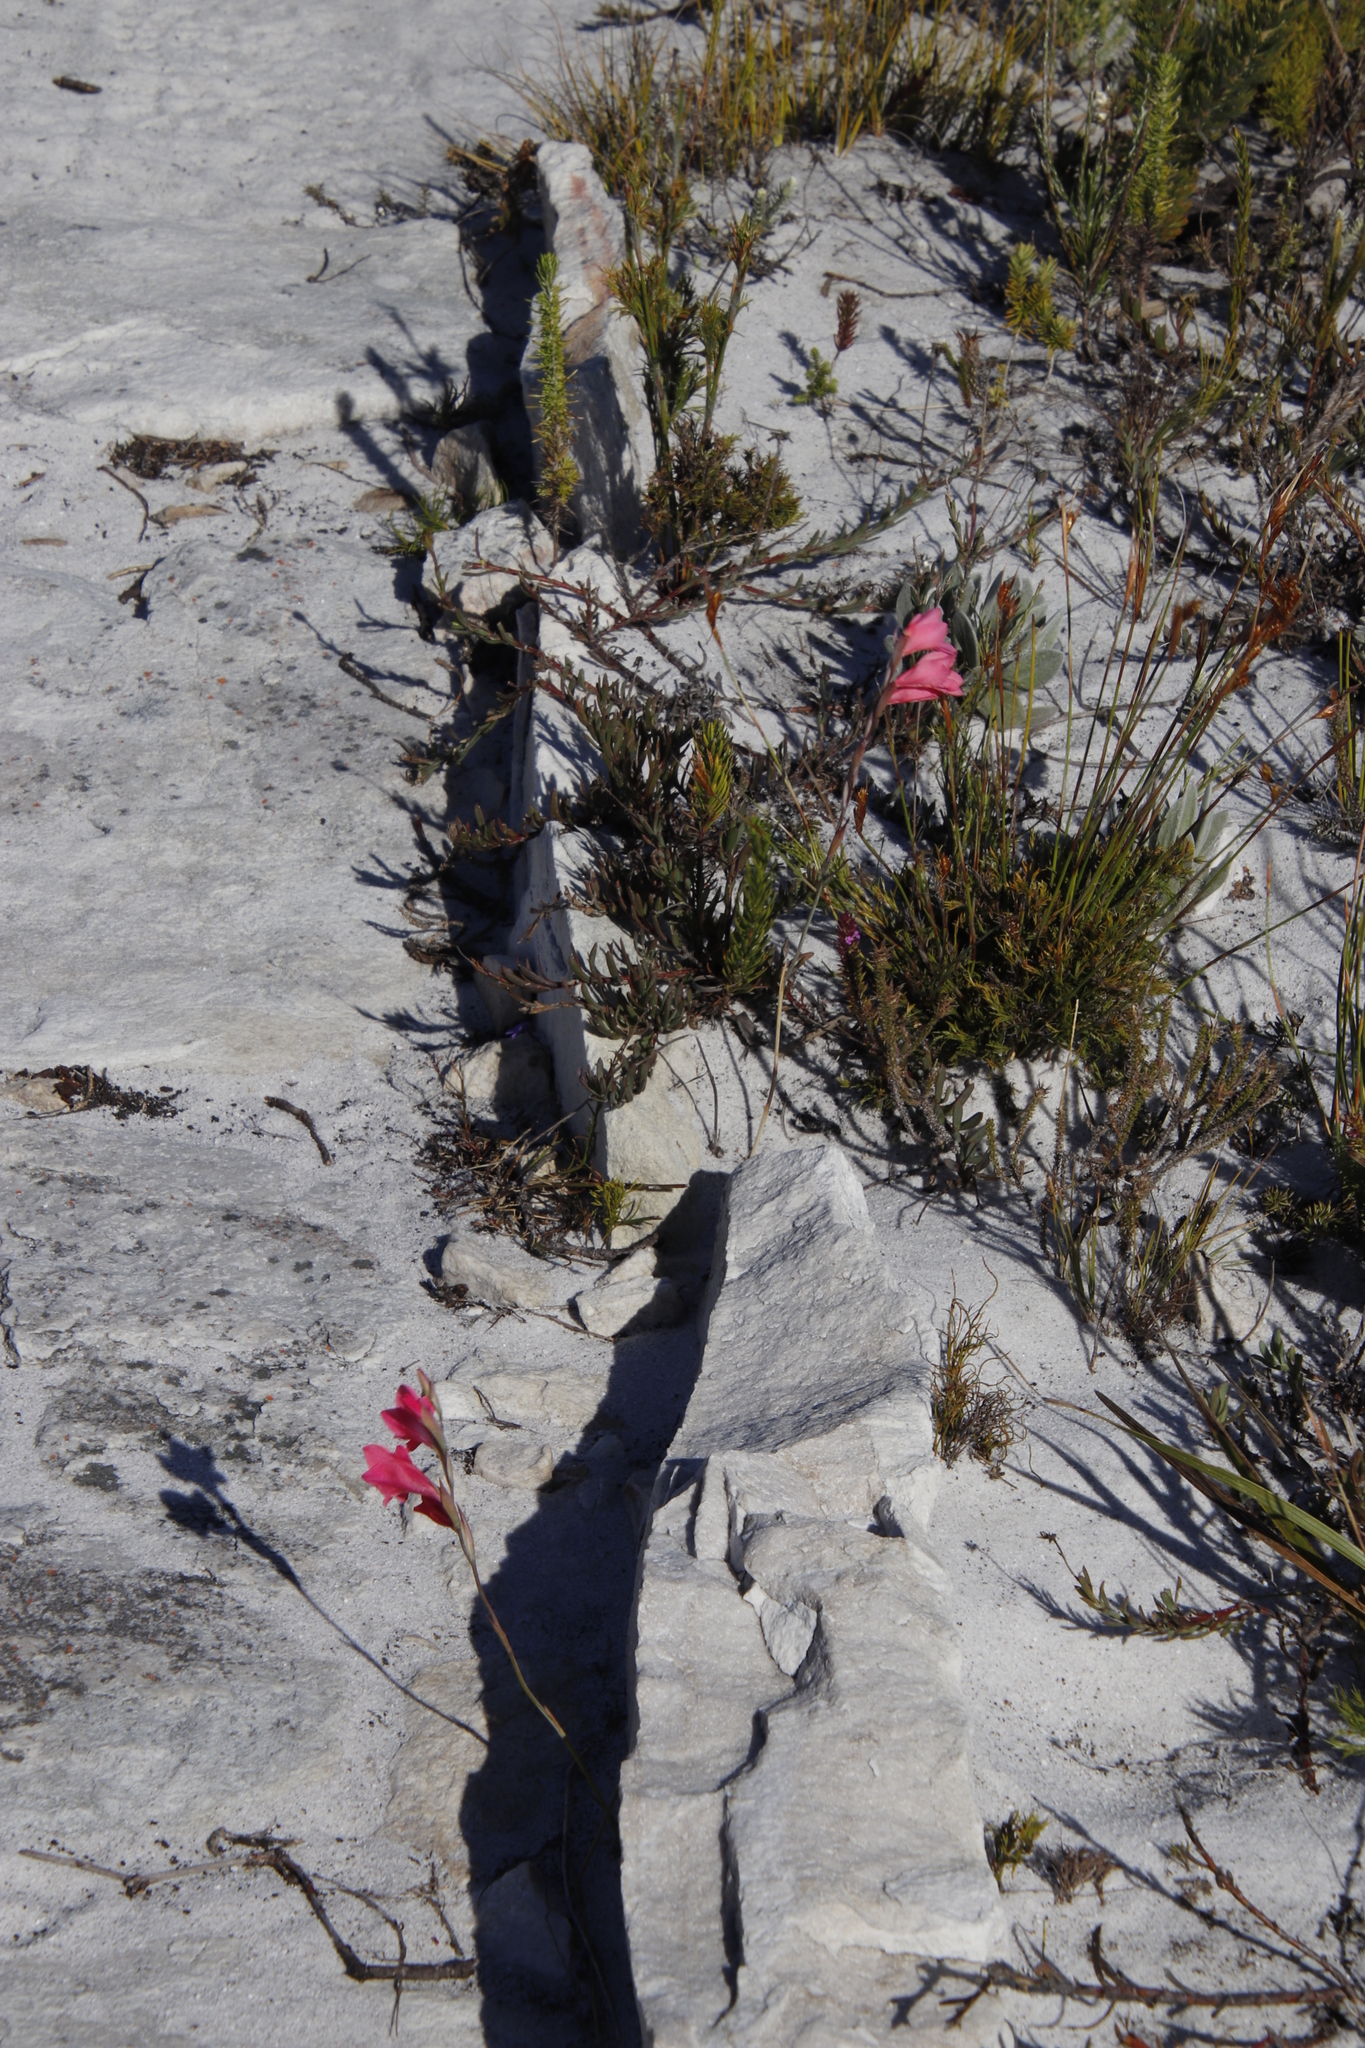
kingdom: Plantae
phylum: Tracheophyta
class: Liliopsida
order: Asparagales
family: Iridaceae
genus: Gladiolus
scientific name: Gladiolus brevifolius
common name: March pypie
